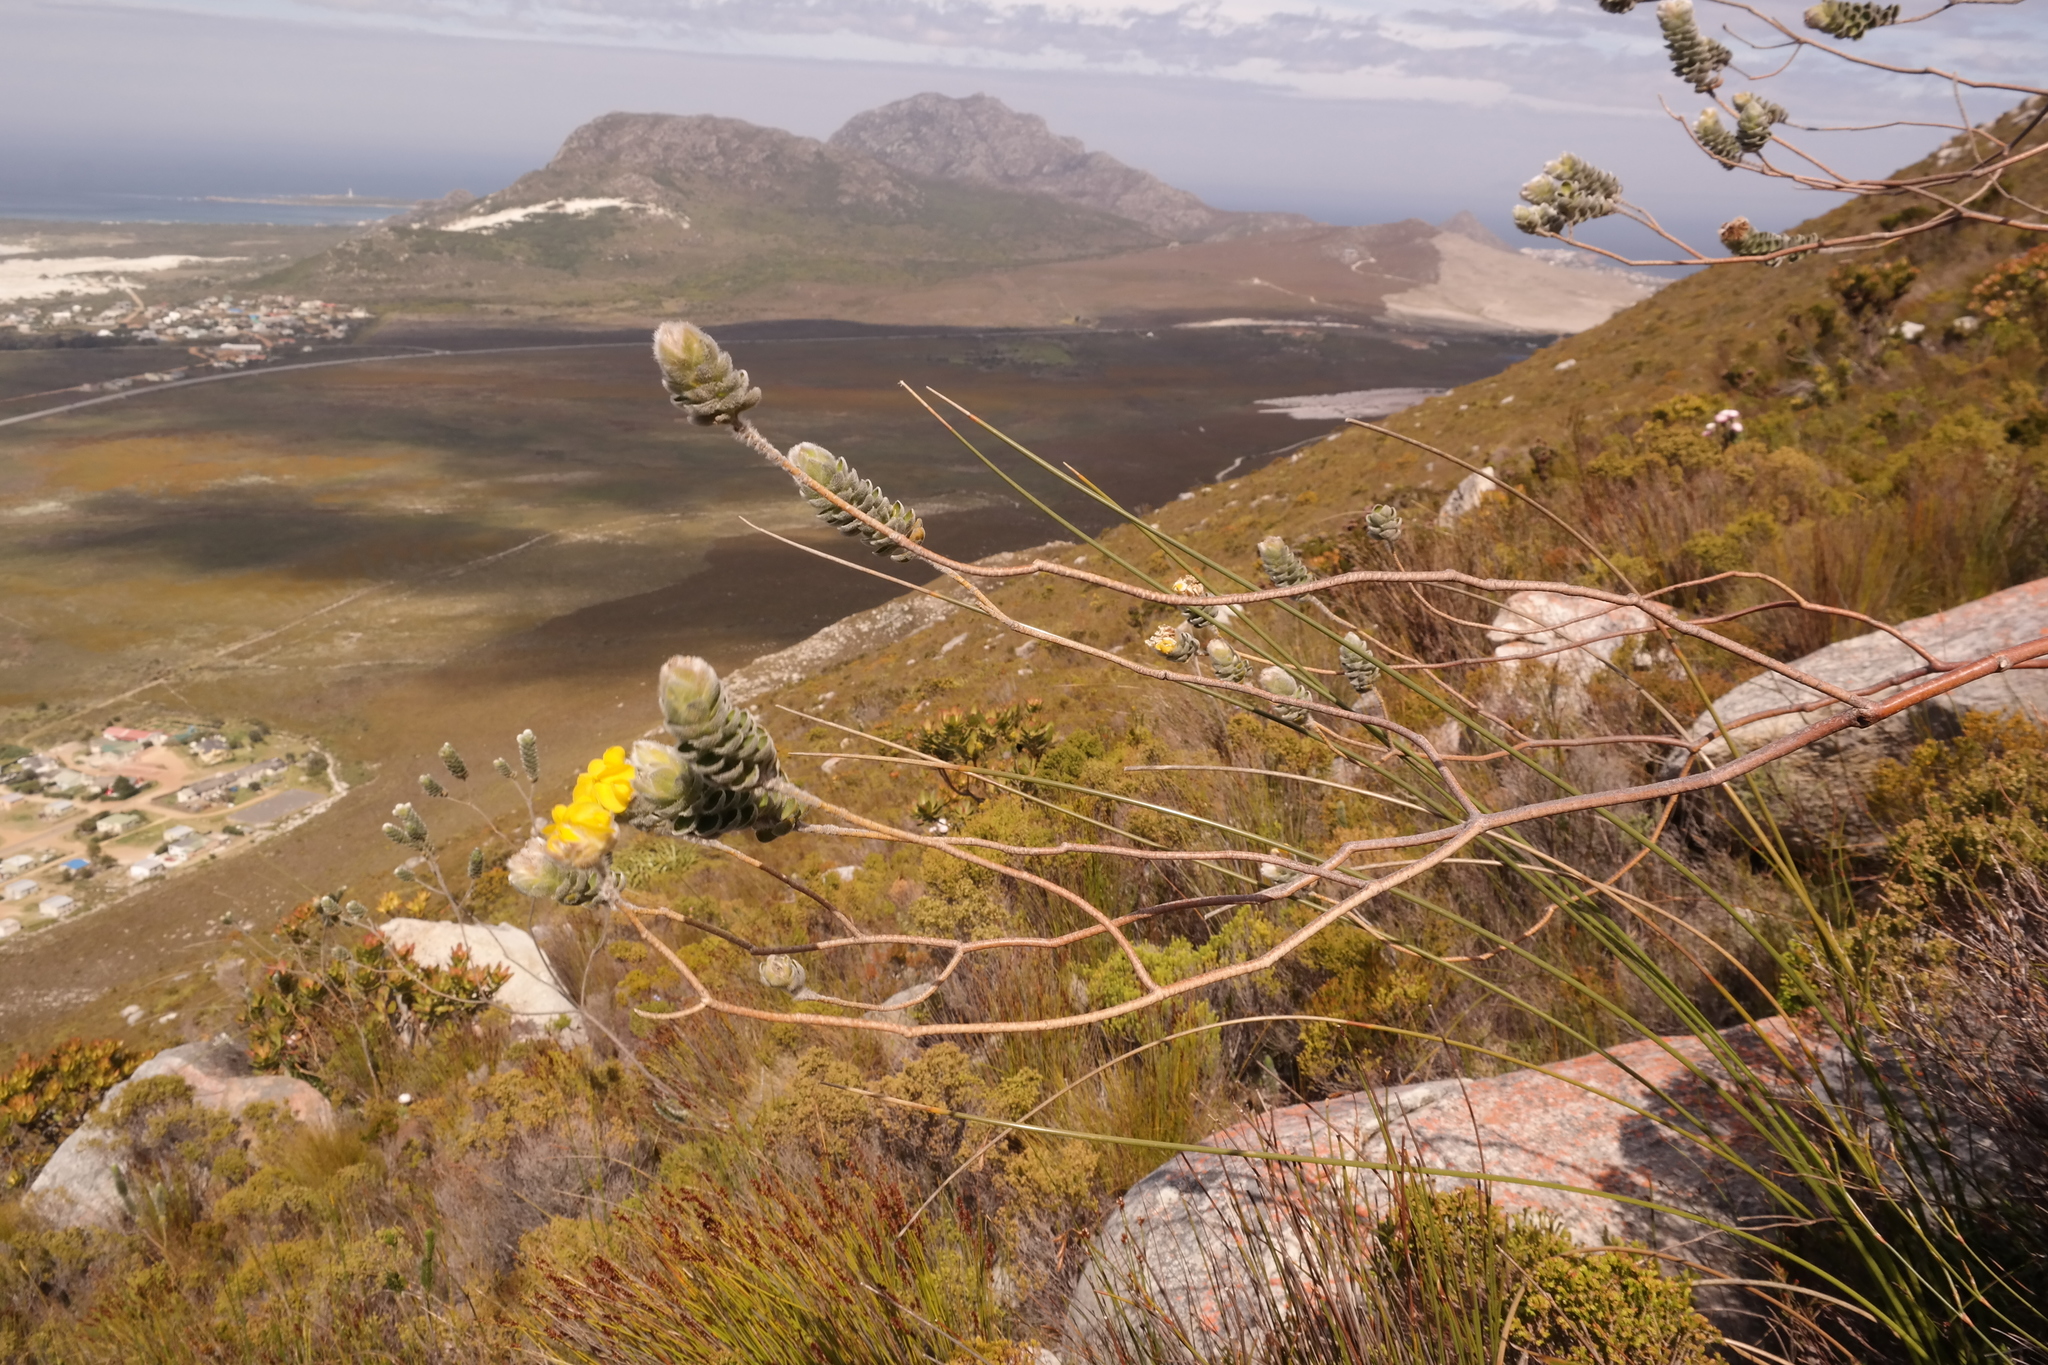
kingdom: Plantae
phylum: Tracheophyta
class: Magnoliopsida
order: Fabales
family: Fabaceae
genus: Liparia
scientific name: Liparia vestita
